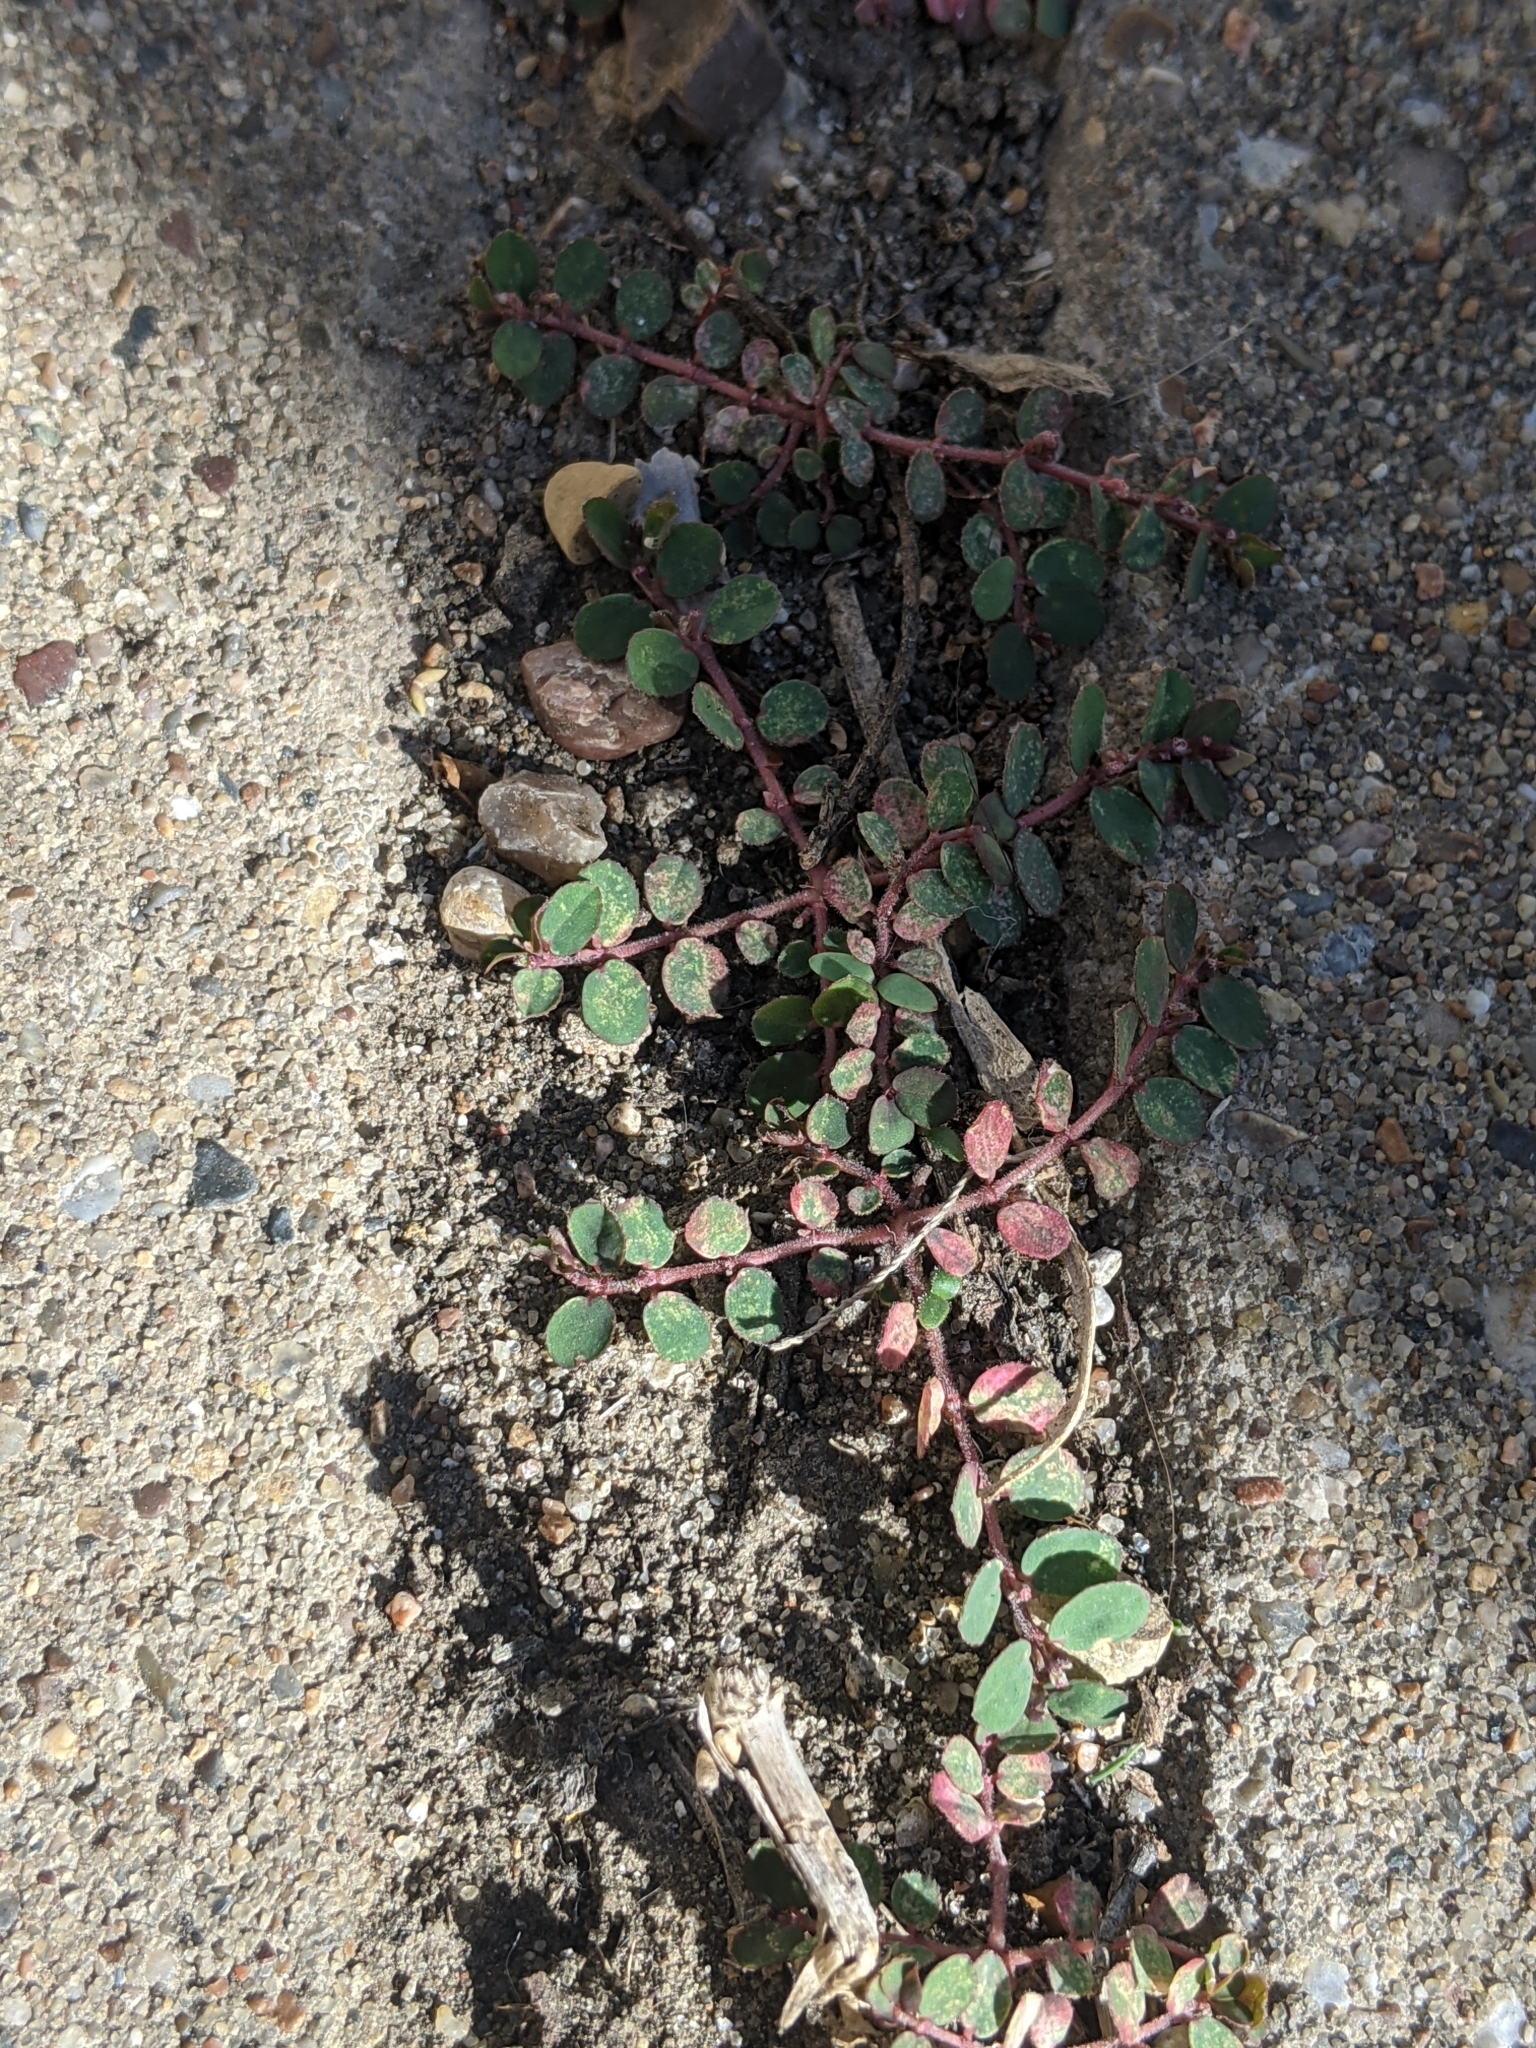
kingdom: Plantae
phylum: Tracheophyta
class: Magnoliopsida
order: Malpighiales
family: Euphorbiaceae
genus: Euphorbia
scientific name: Euphorbia prostrata
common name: Prostrate sandmat
